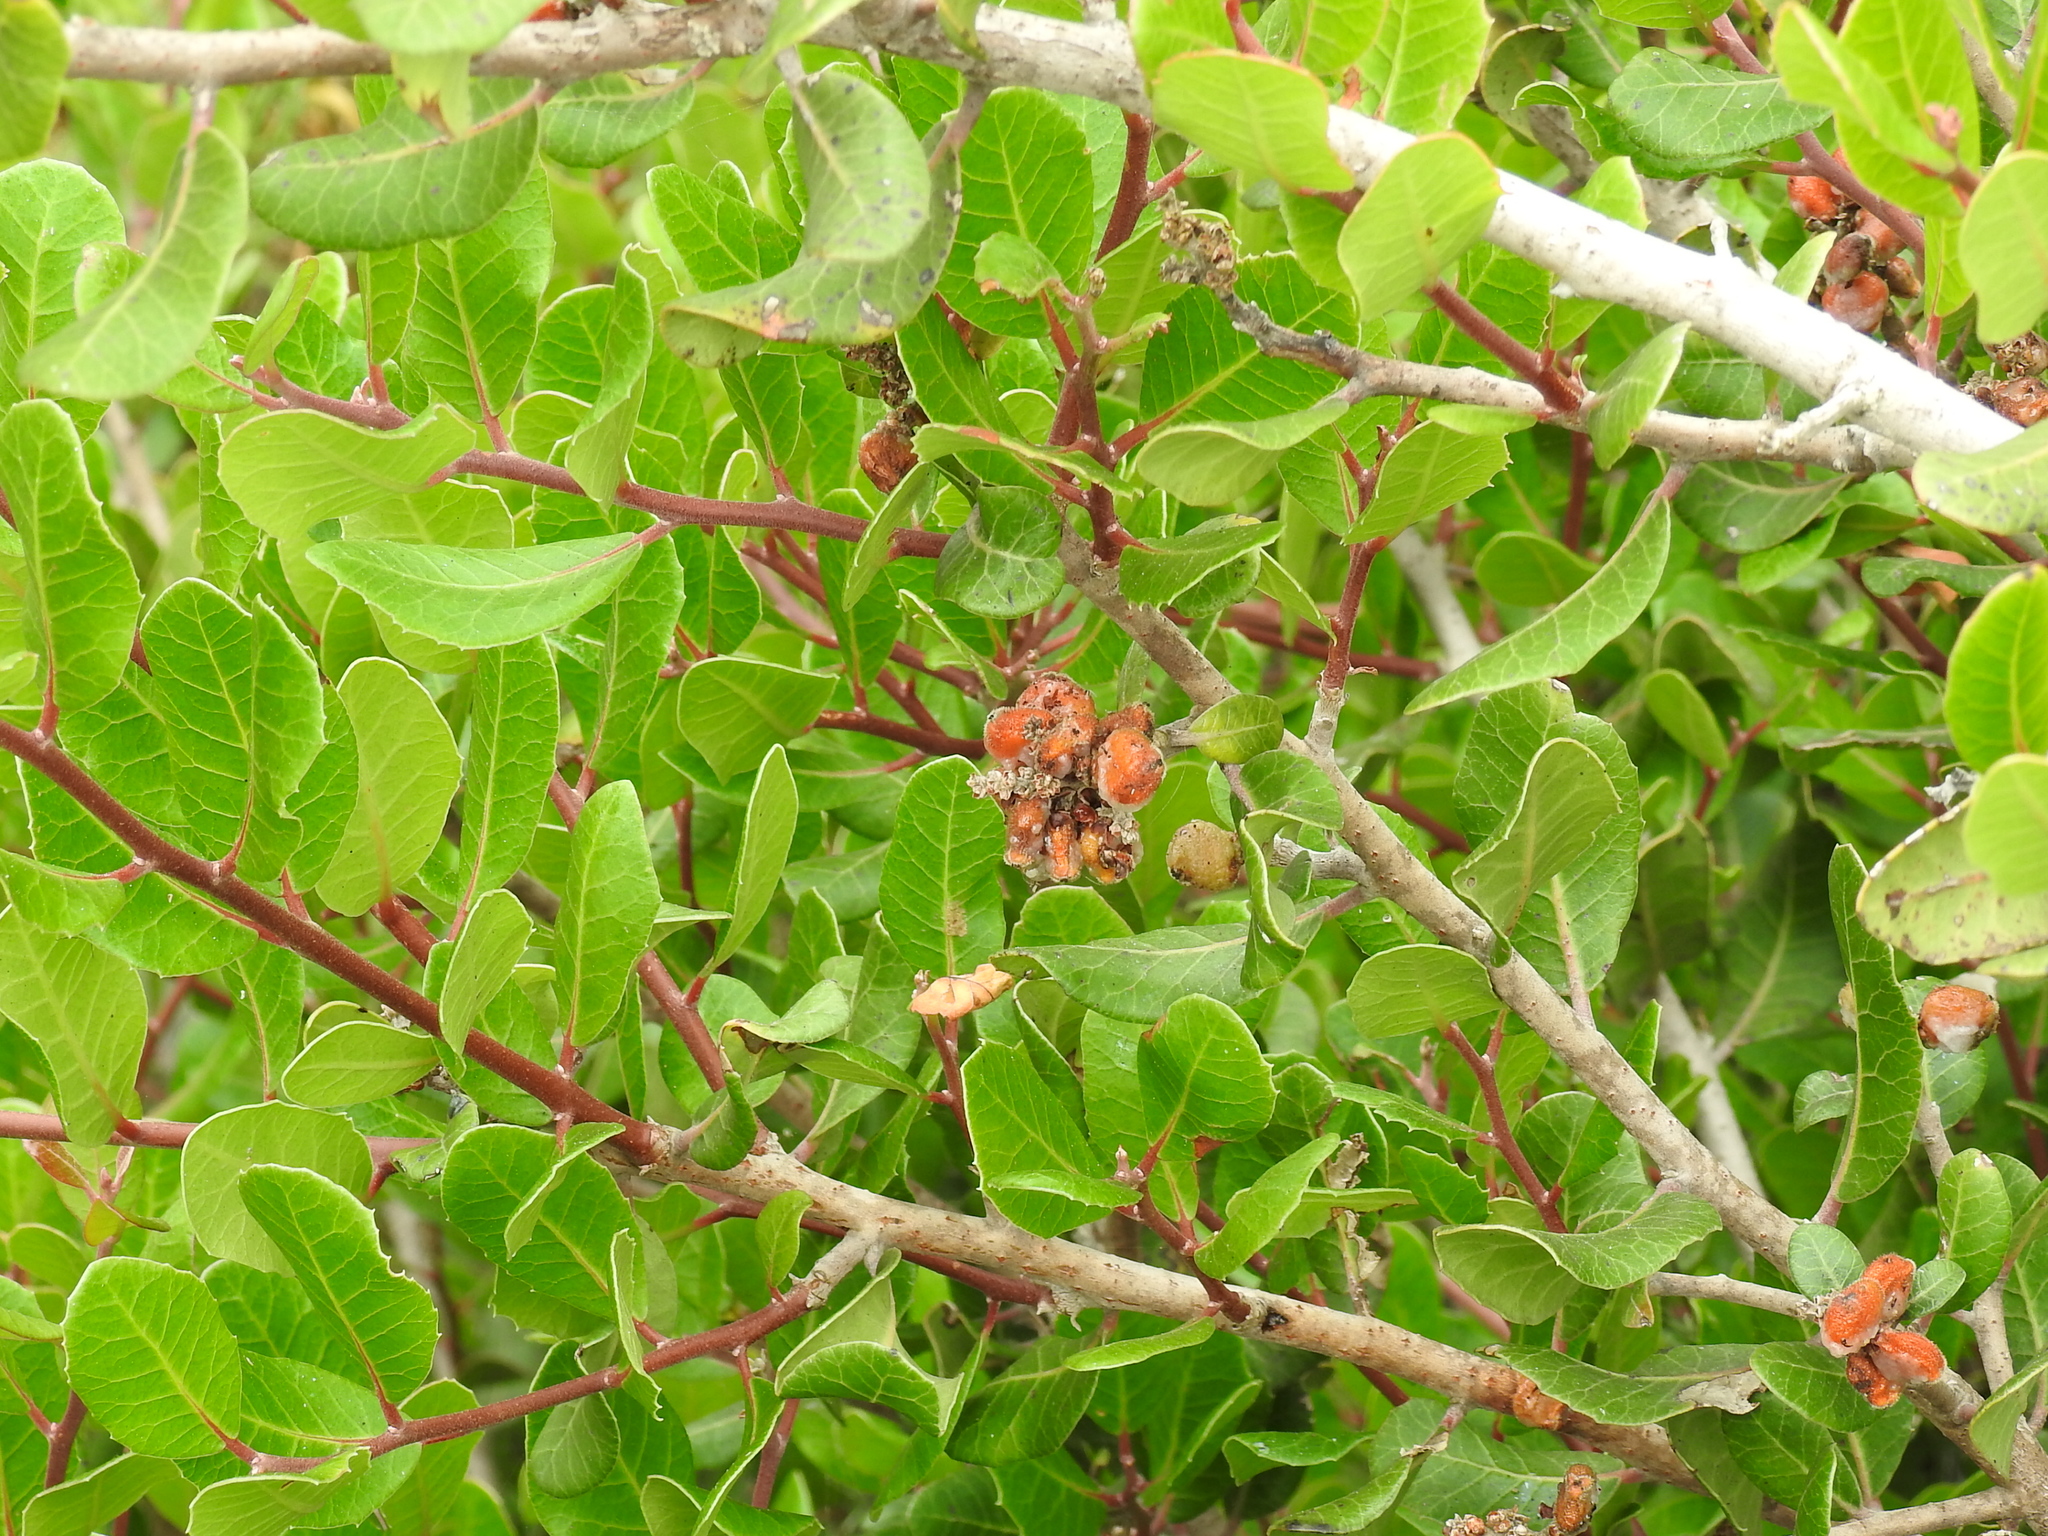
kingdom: Plantae
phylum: Tracheophyta
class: Magnoliopsida
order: Sapindales
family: Anacardiaceae
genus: Rhus
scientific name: Rhus integrifolia
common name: Lemonade sumac
